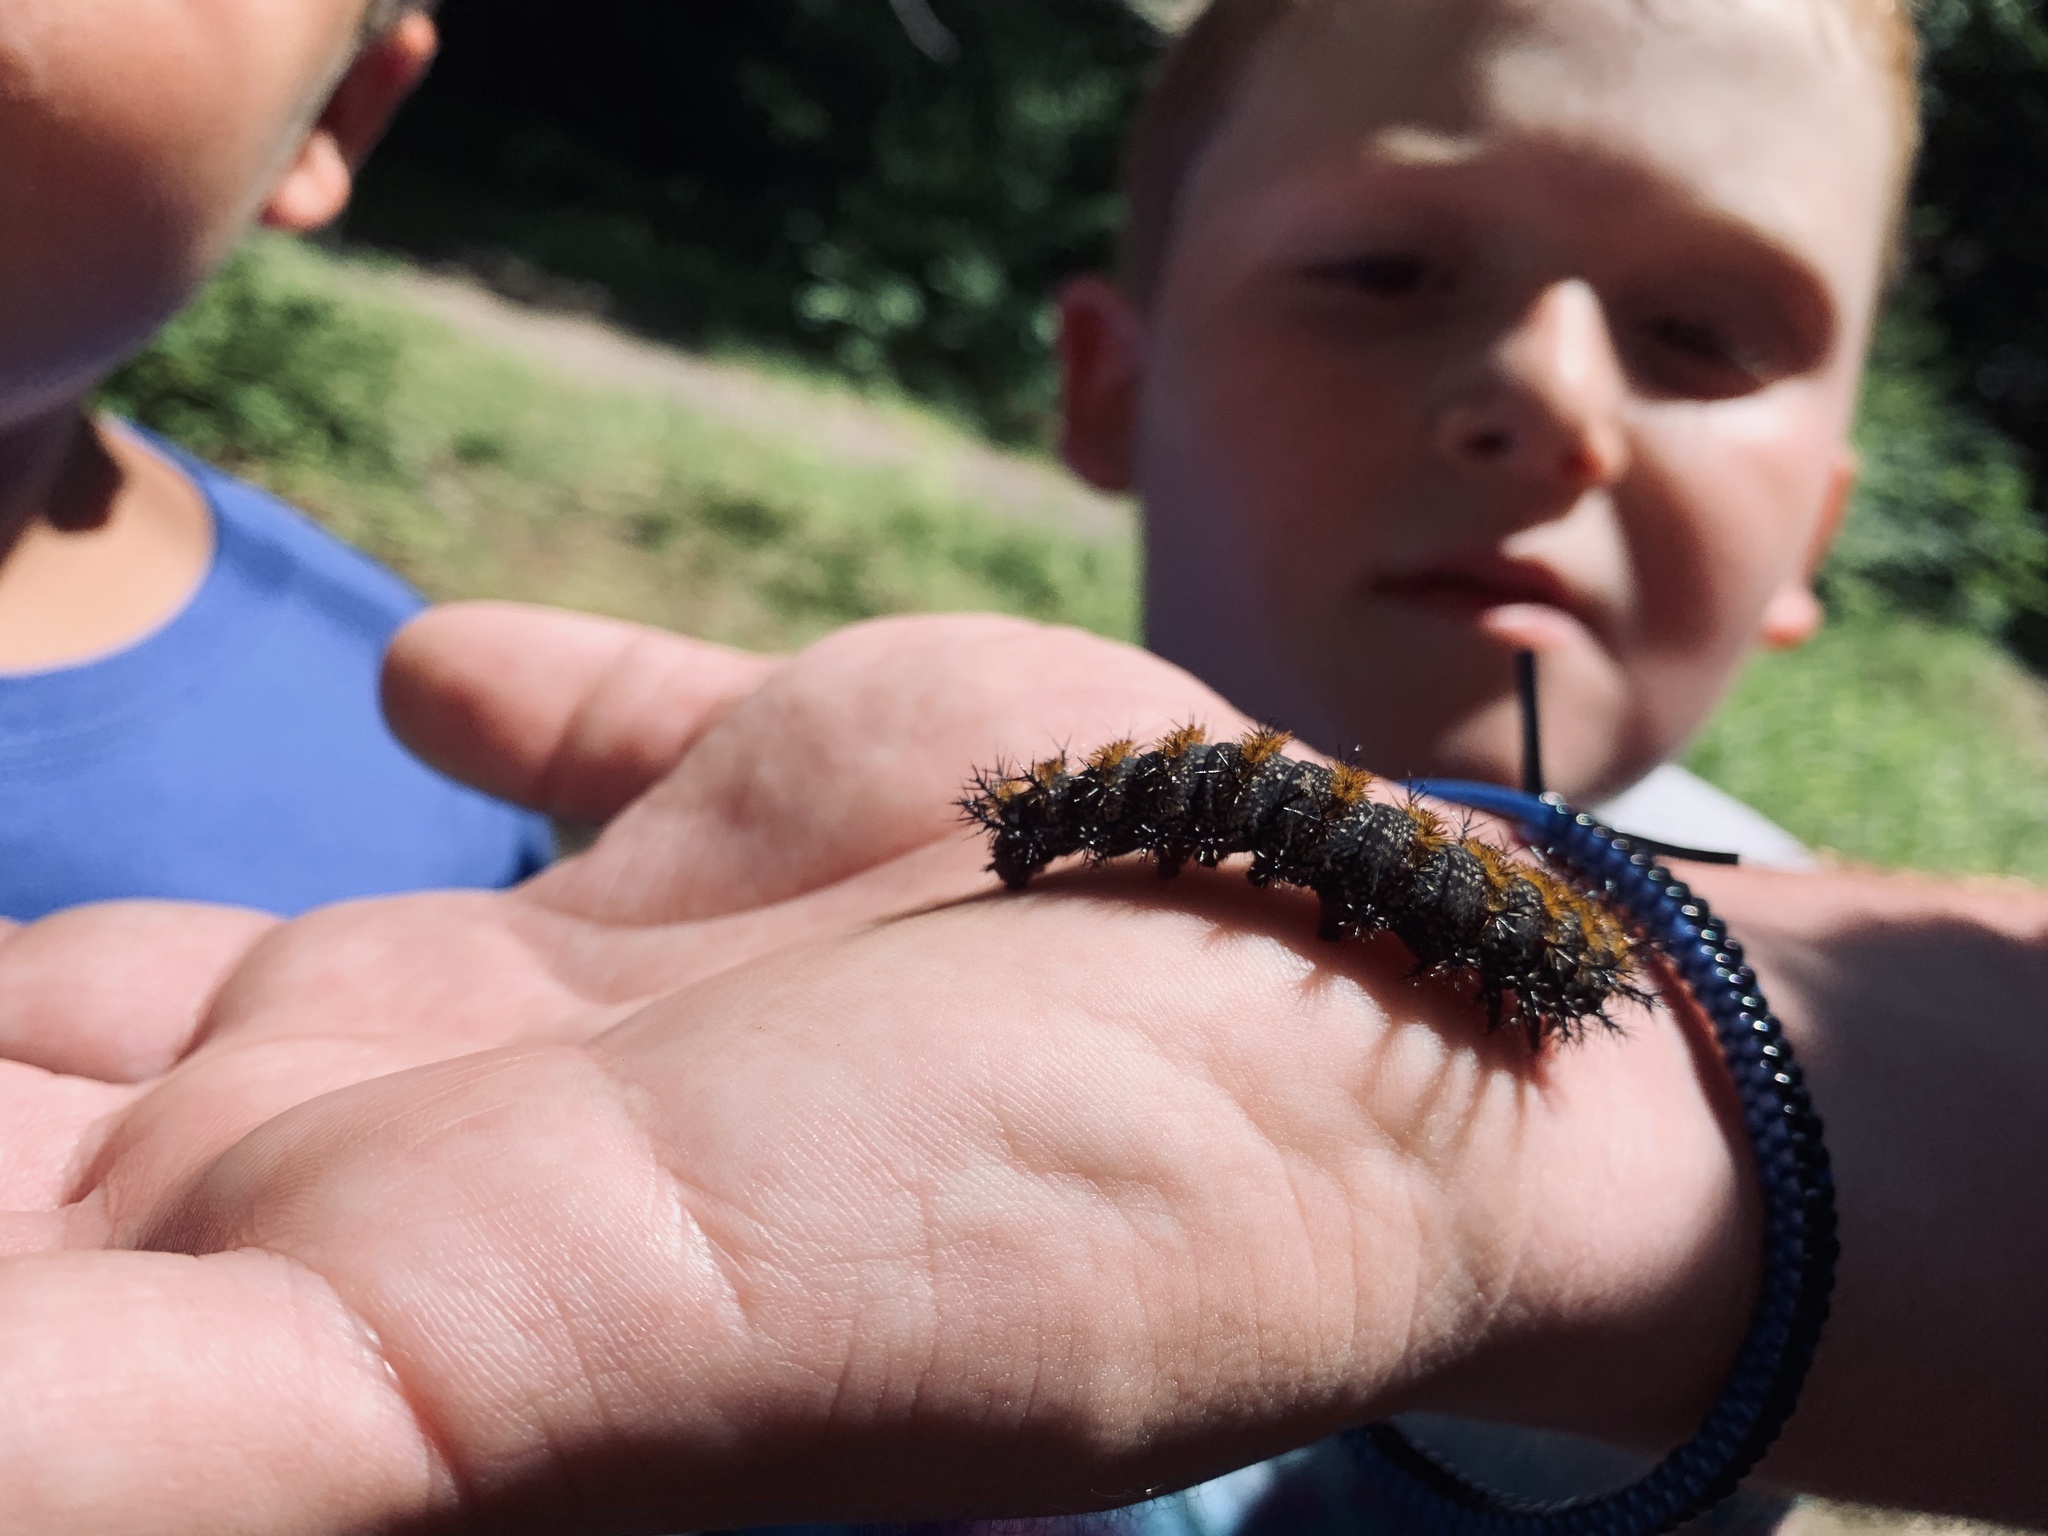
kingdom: Animalia
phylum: Arthropoda
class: Insecta
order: Lepidoptera
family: Saturniidae
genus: Hemileuca
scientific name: Hemileuca maia
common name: Eastern buckmoth
